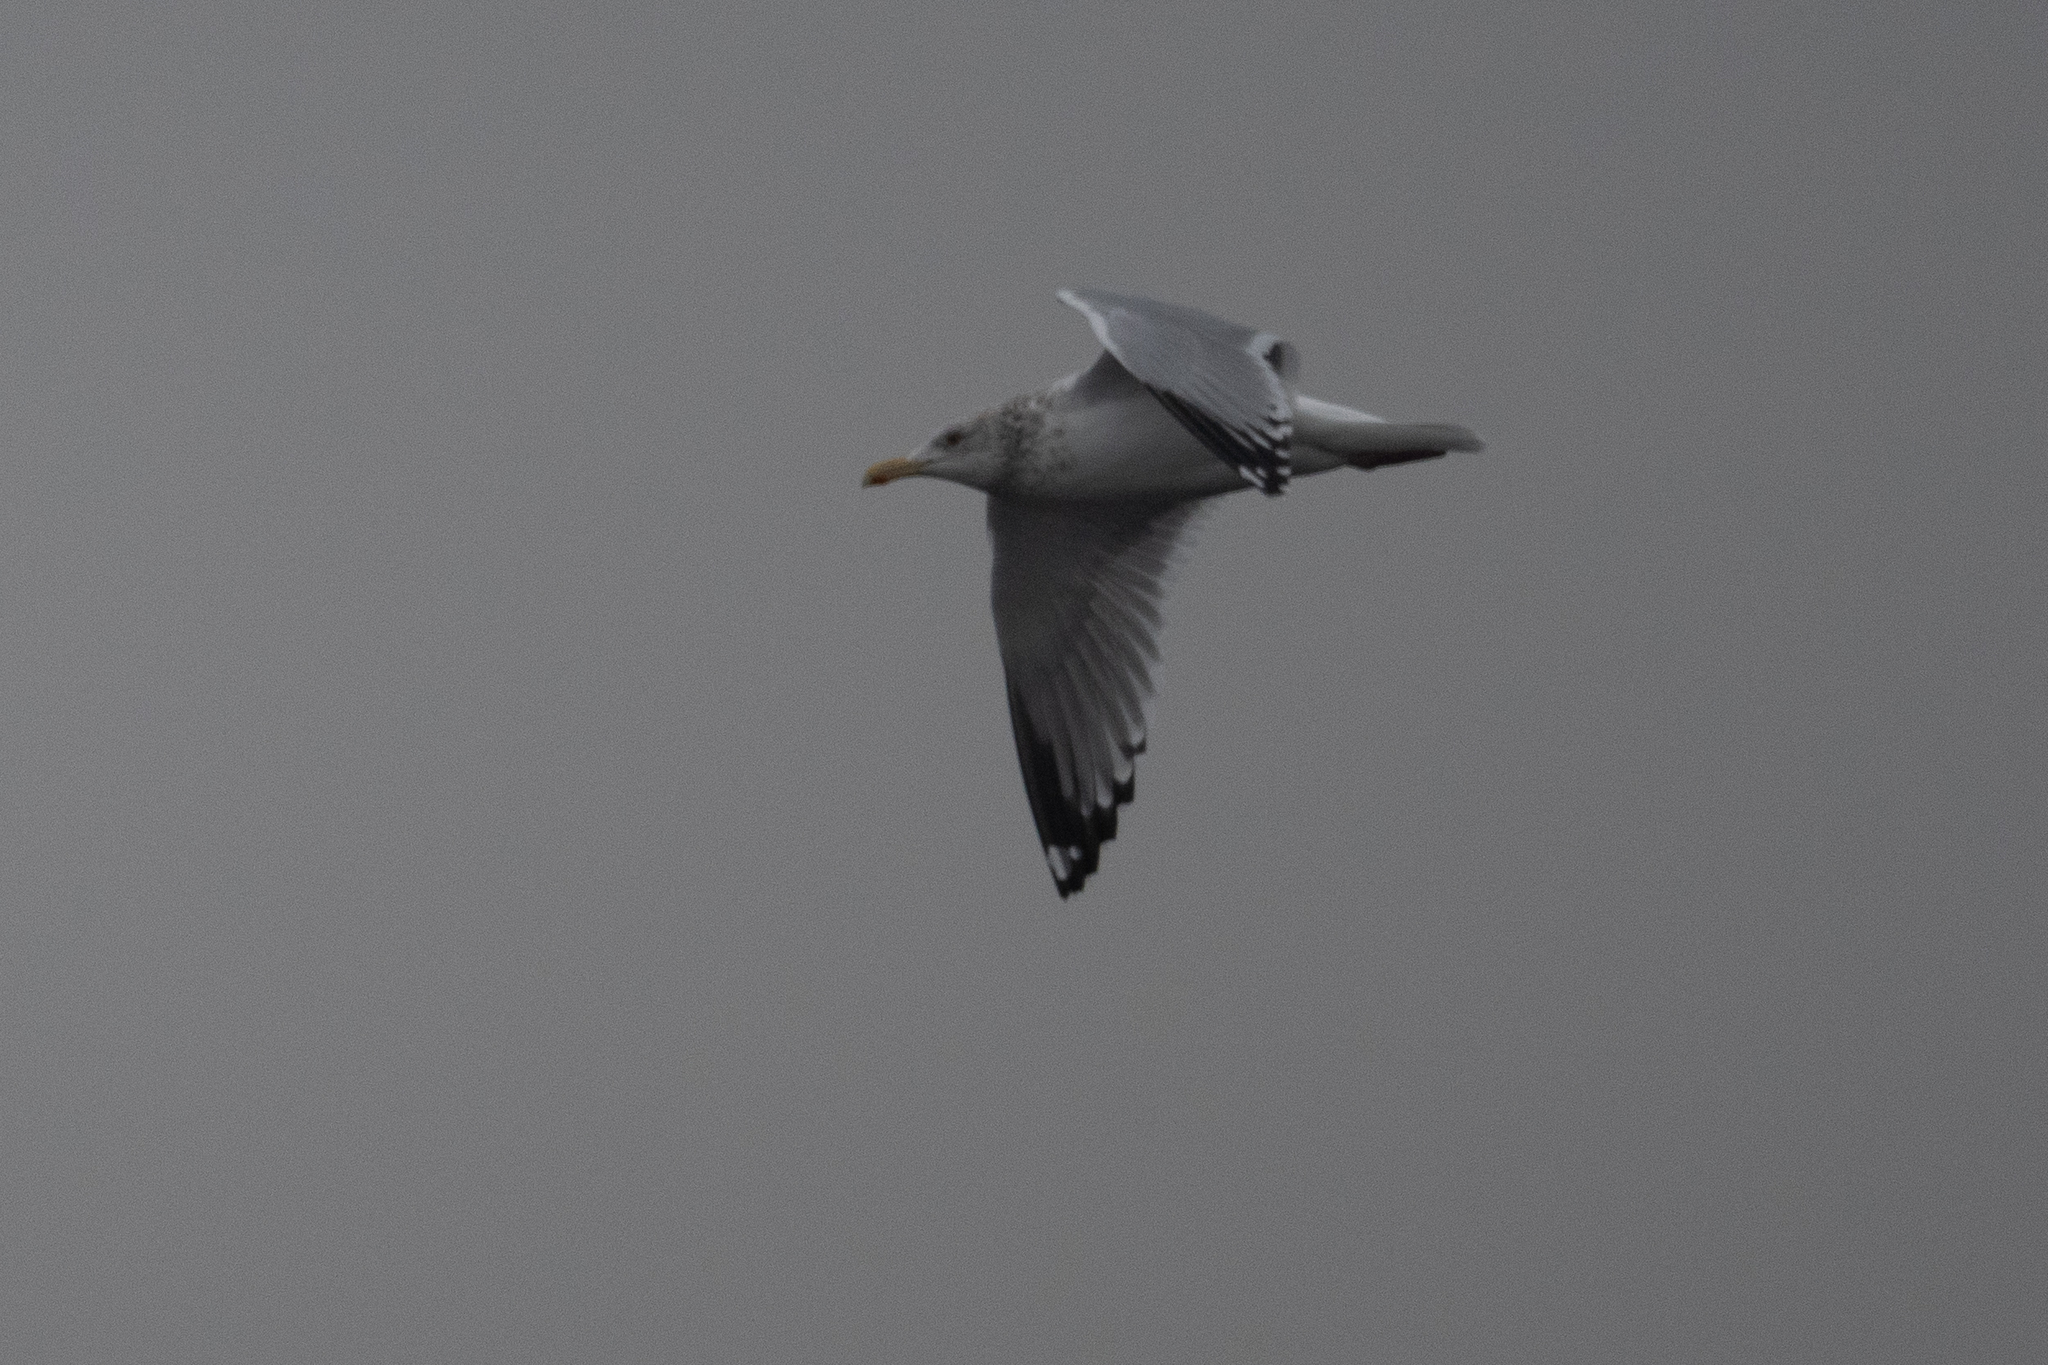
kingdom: Animalia
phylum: Chordata
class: Aves
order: Charadriiformes
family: Laridae
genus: Larus
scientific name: Larus argentatus
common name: Herring gull
